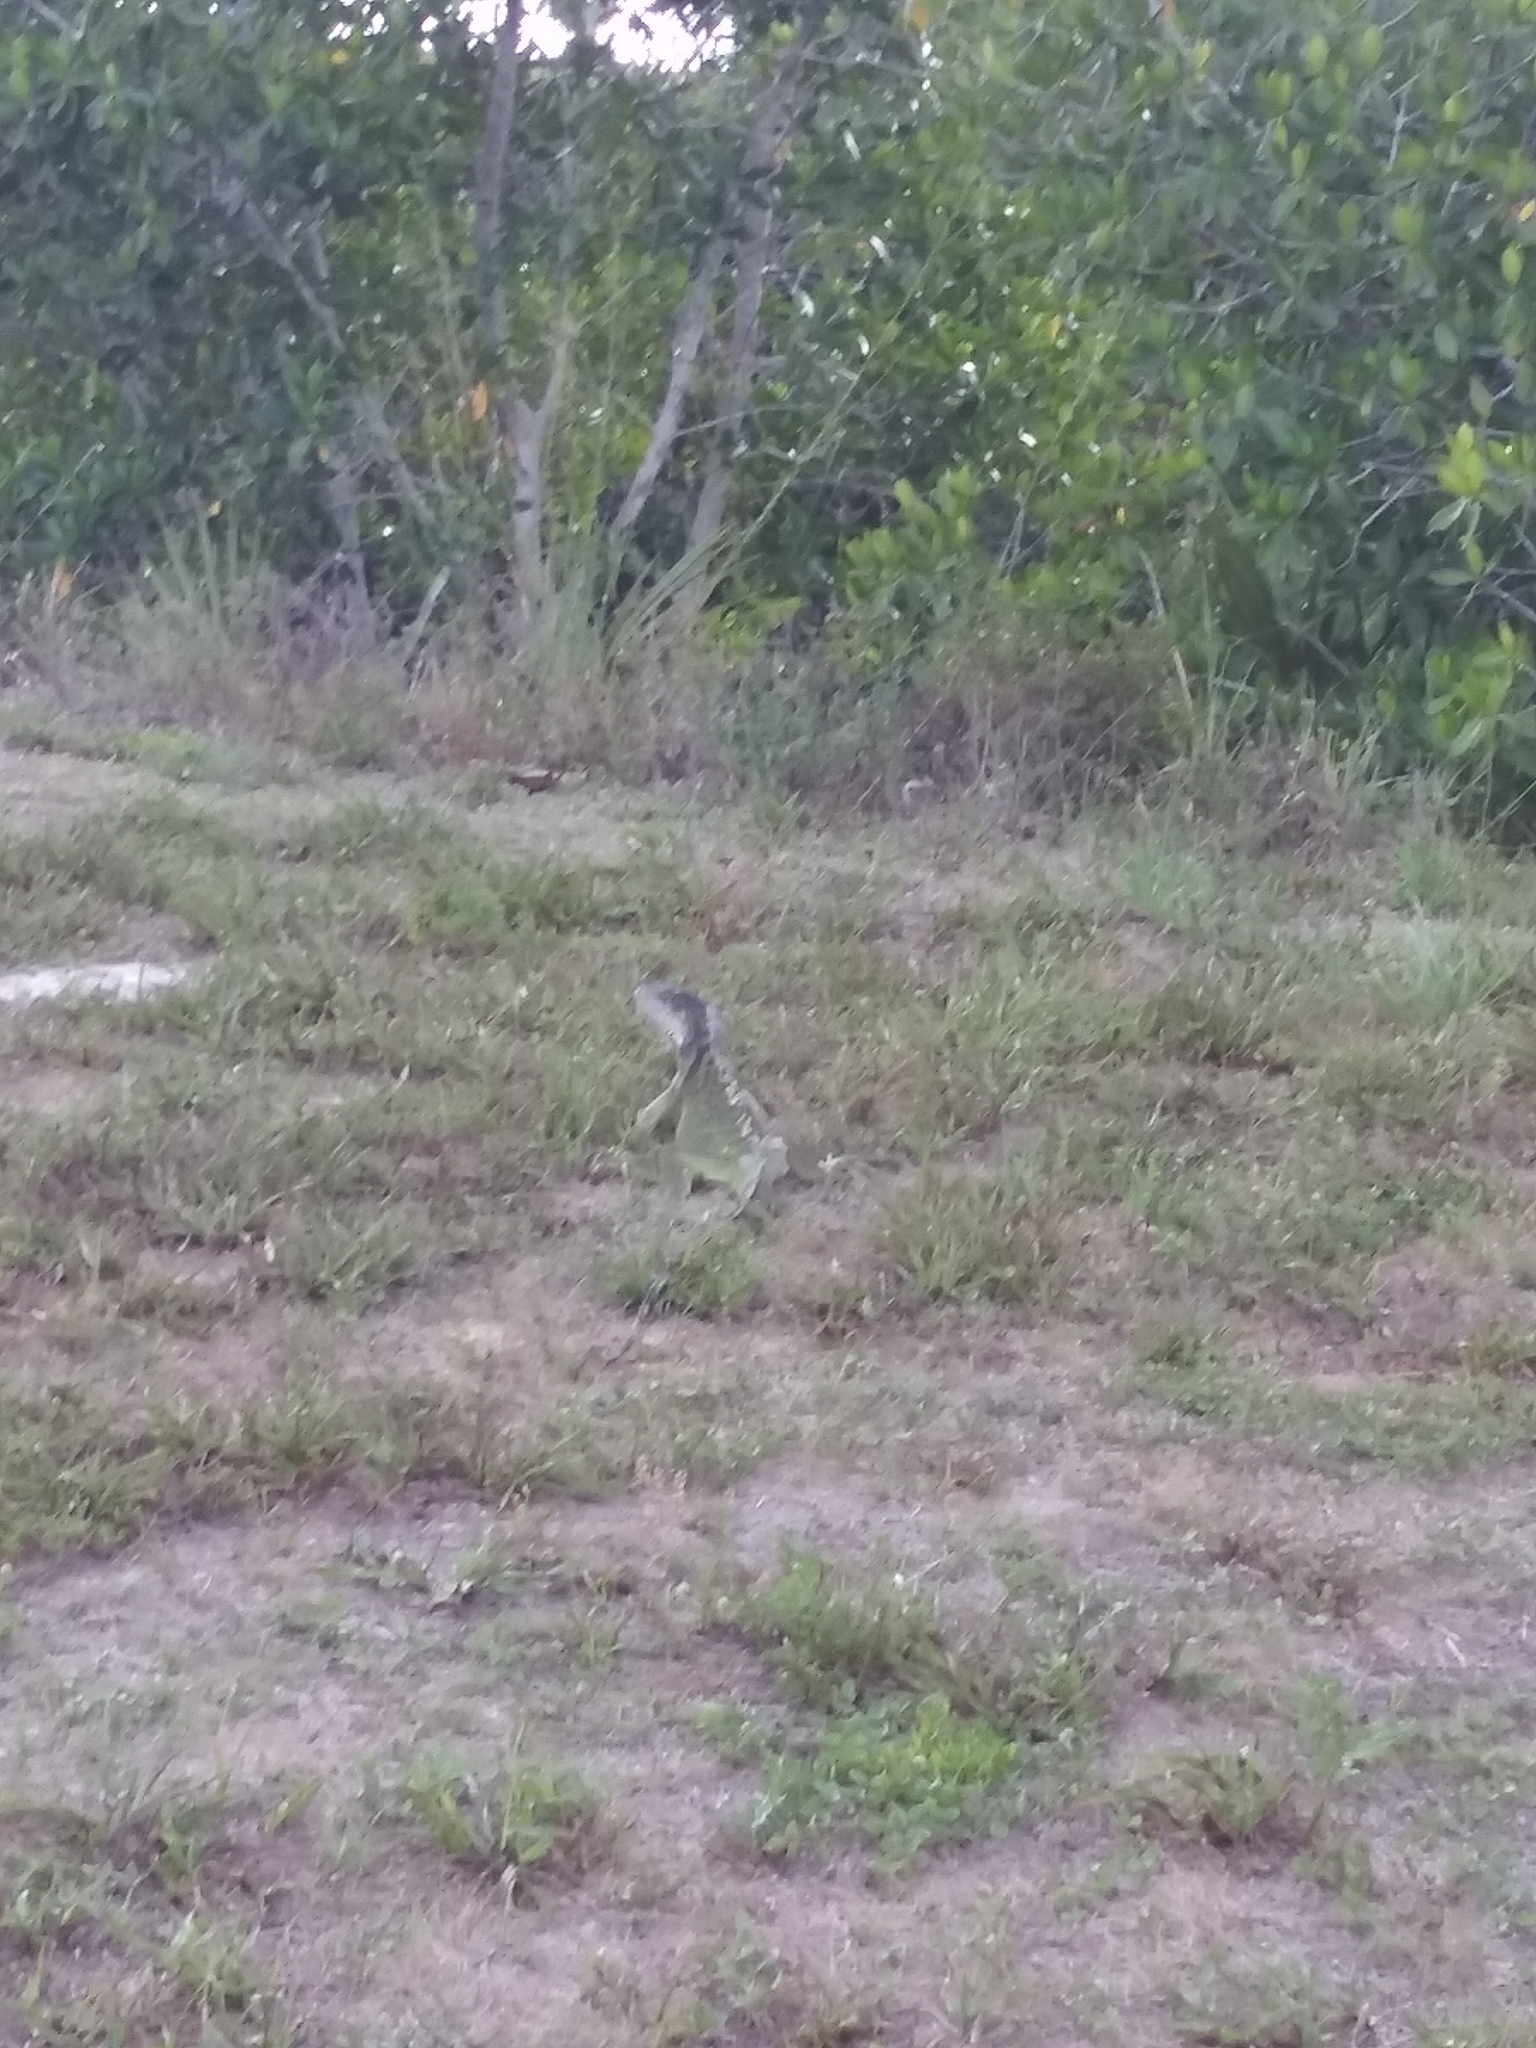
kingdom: Animalia
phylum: Chordata
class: Squamata
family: Iguanidae
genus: Iguana
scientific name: Iguana iguana
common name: Green iguana
